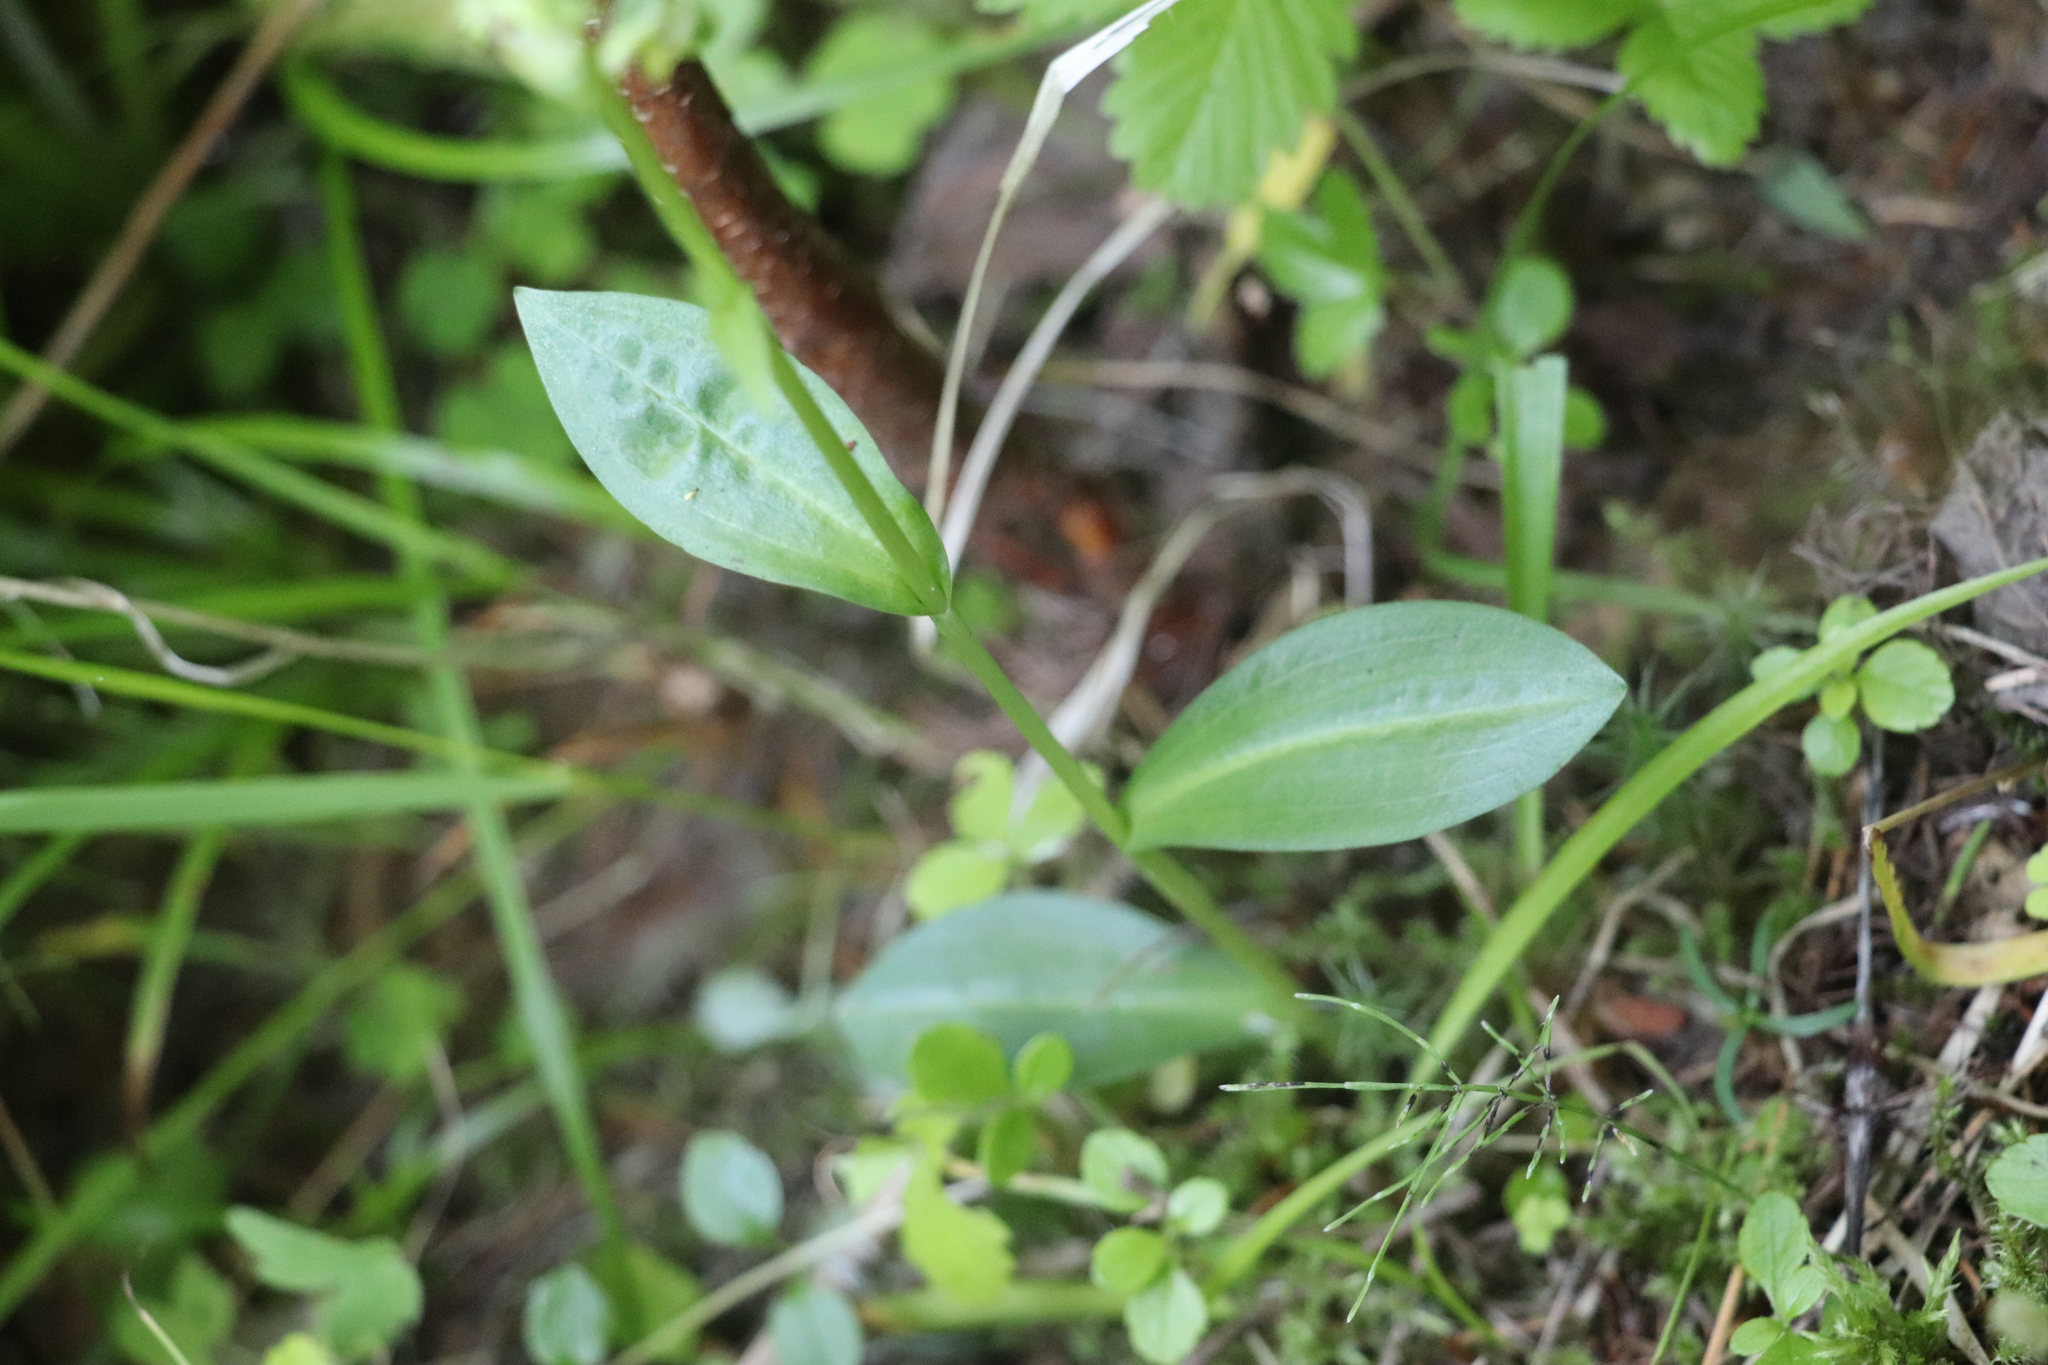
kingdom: Plantae
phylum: Tracheophyta
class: Liliopsida
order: Asparagales
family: Orchidaceae
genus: Dactylorhiza
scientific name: Dactylorhiza viridis
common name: Longbract frog orchid
